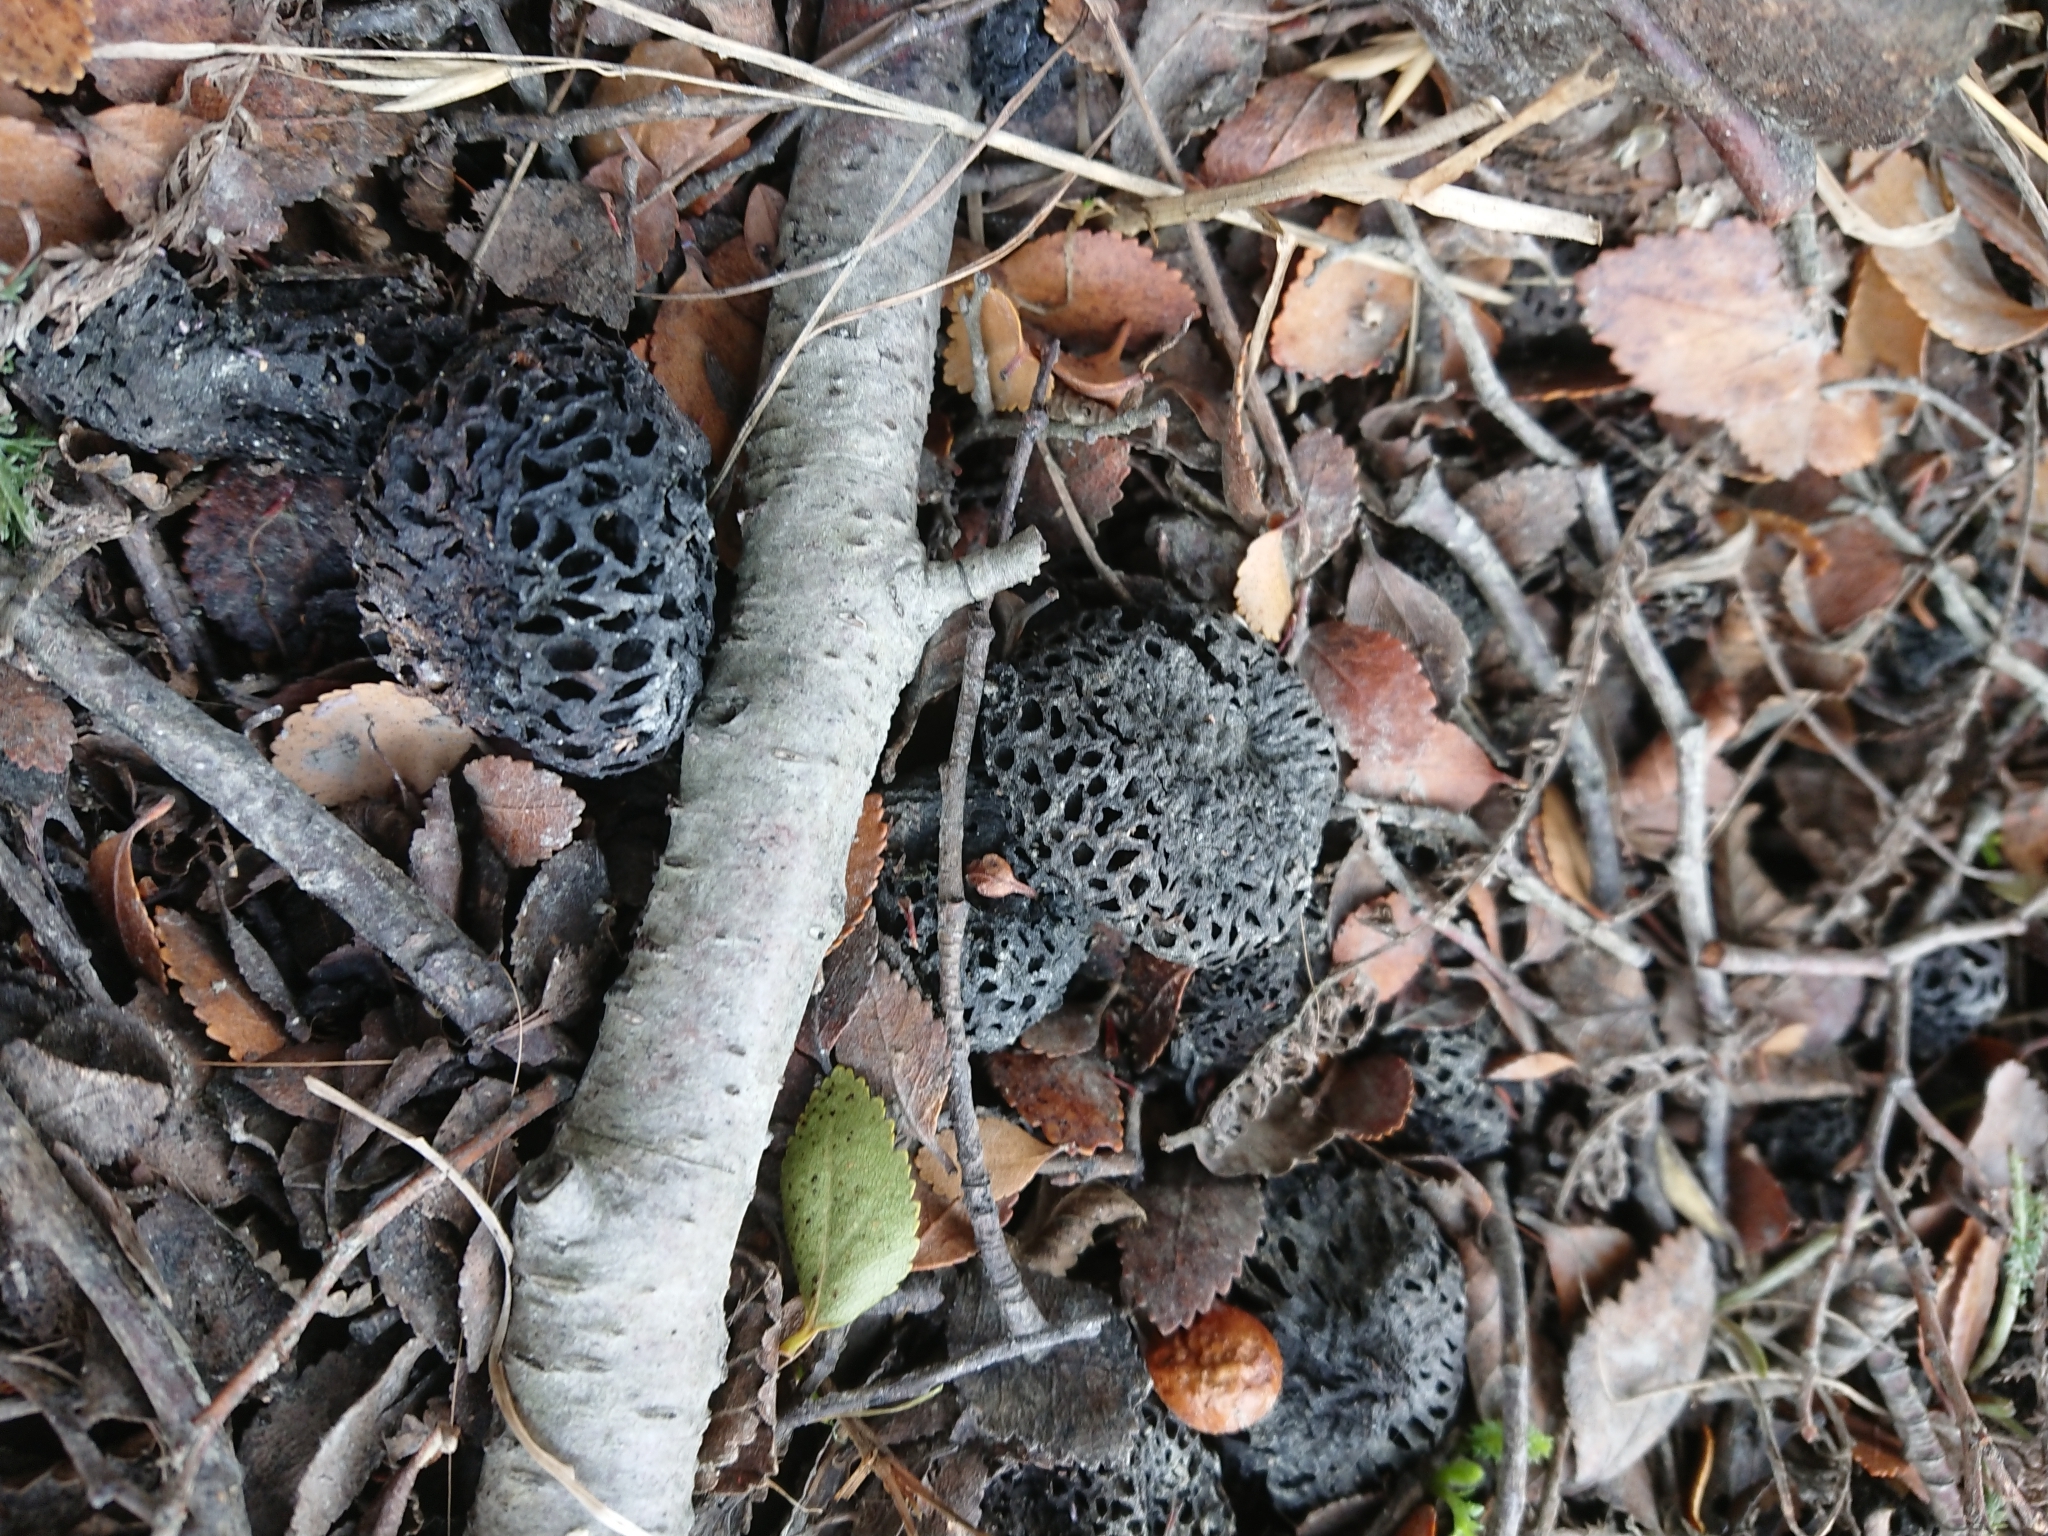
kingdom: Fungi
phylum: Ascomycota
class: Leotiomycetes
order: Cyttariales
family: Cyttariaceae
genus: Cyttaria
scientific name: Cyttaria hariotii
